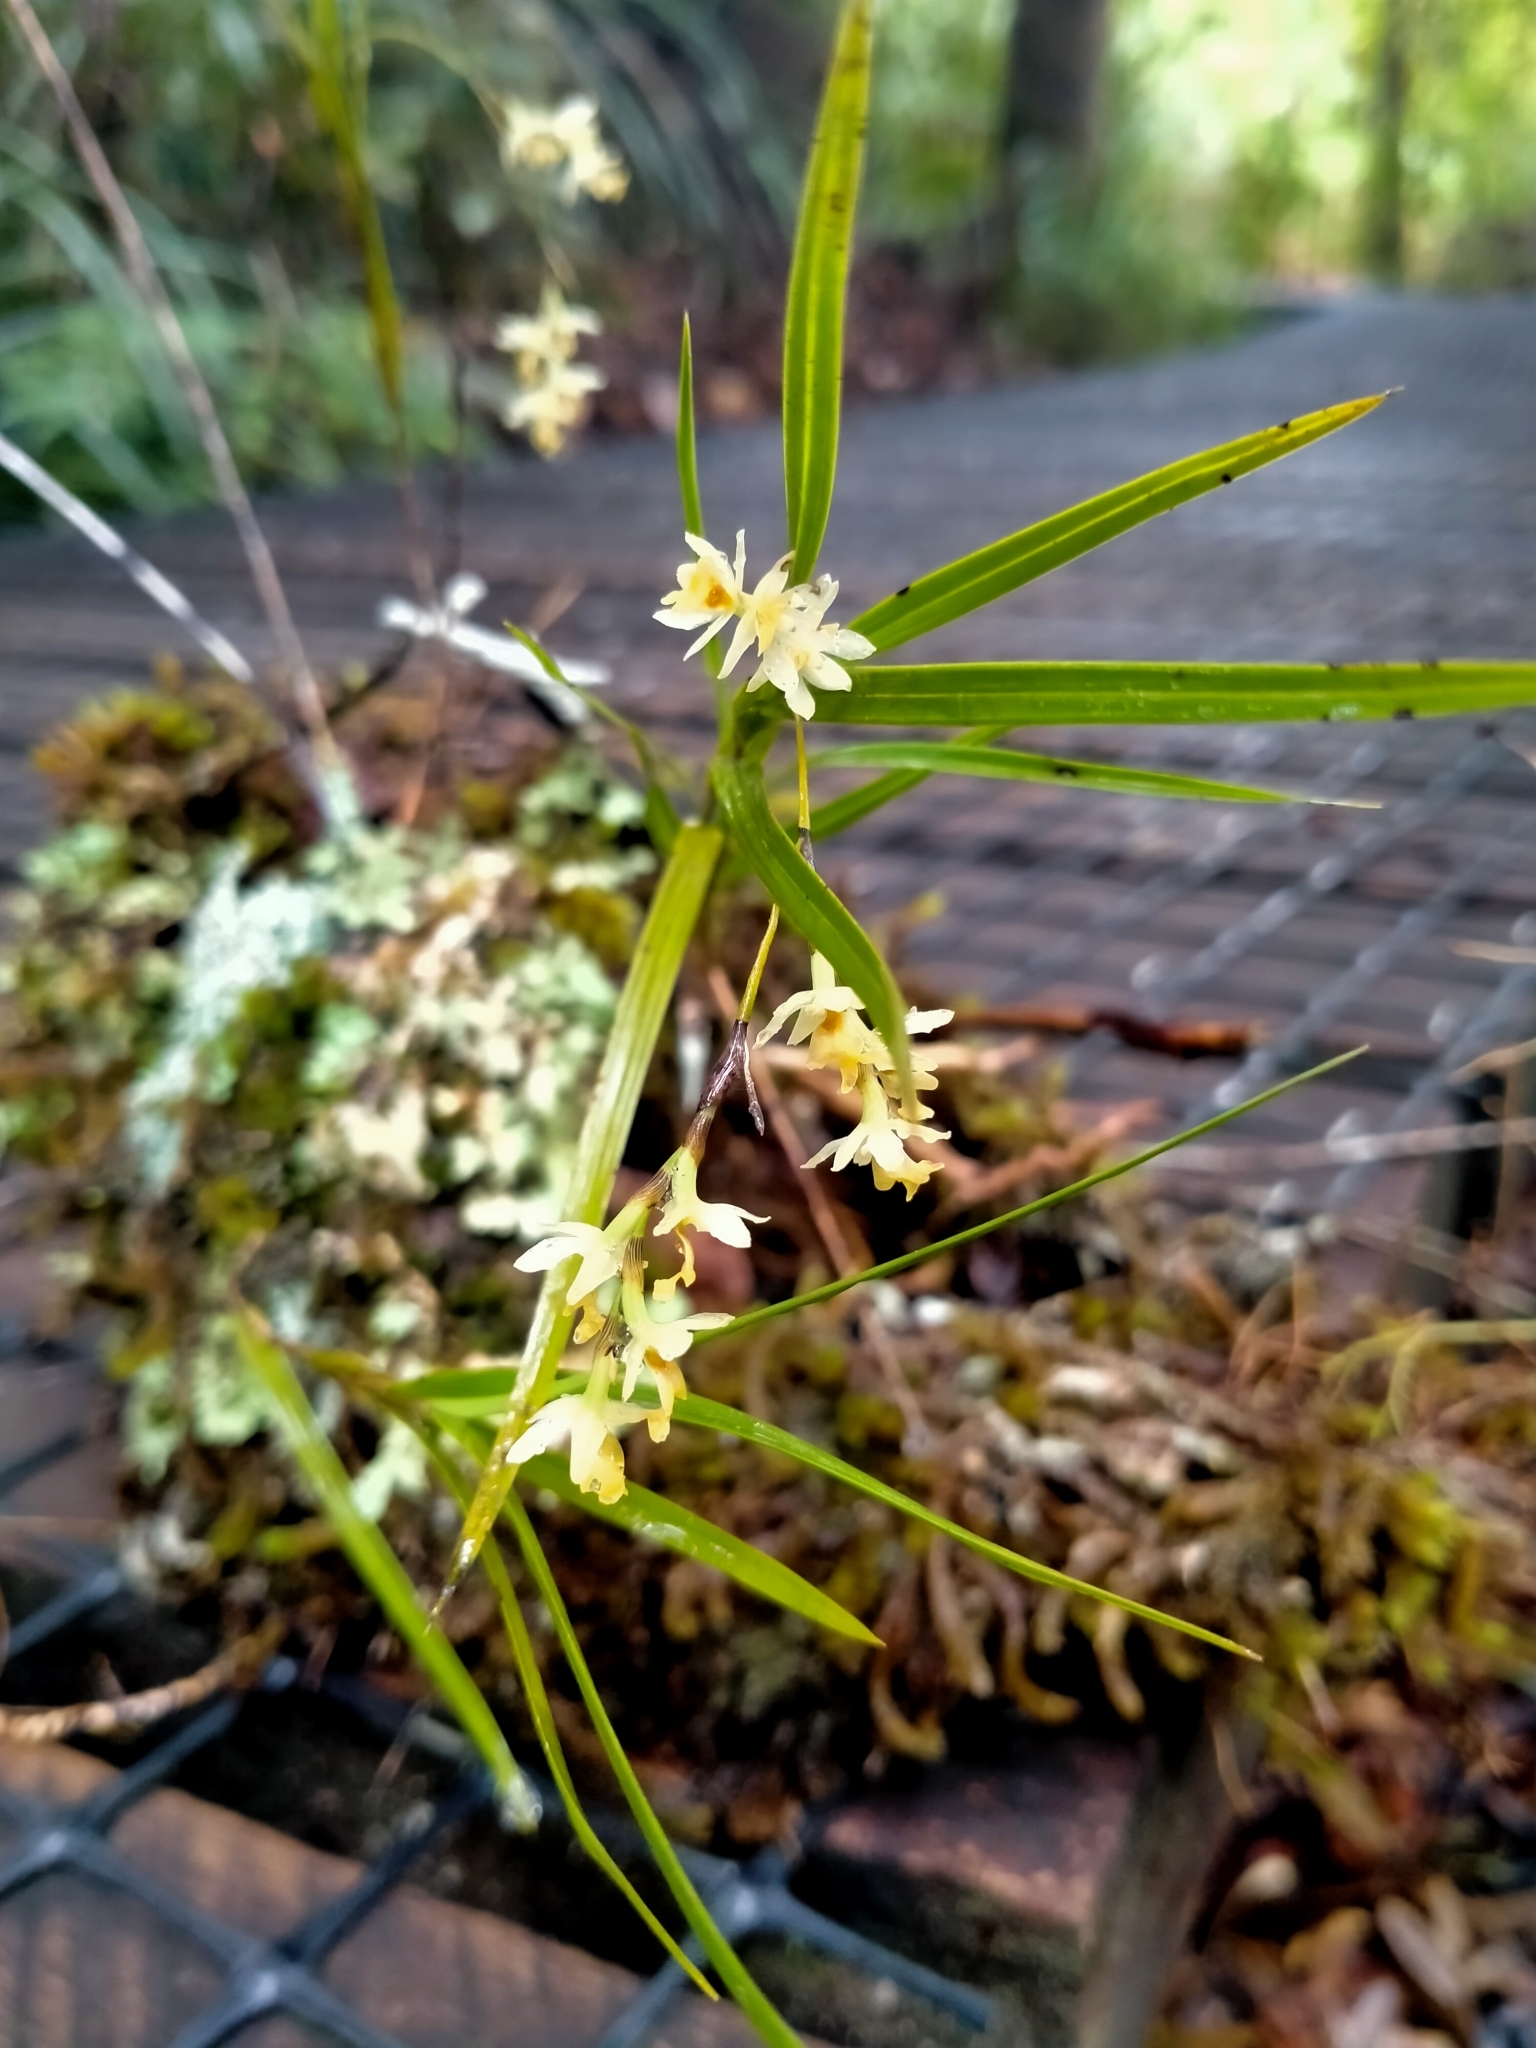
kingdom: Plantae
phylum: Tracheophyta
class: Liliopsida
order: Asparagales
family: Orchidaceae
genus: Earina
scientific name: Earina mucronata
